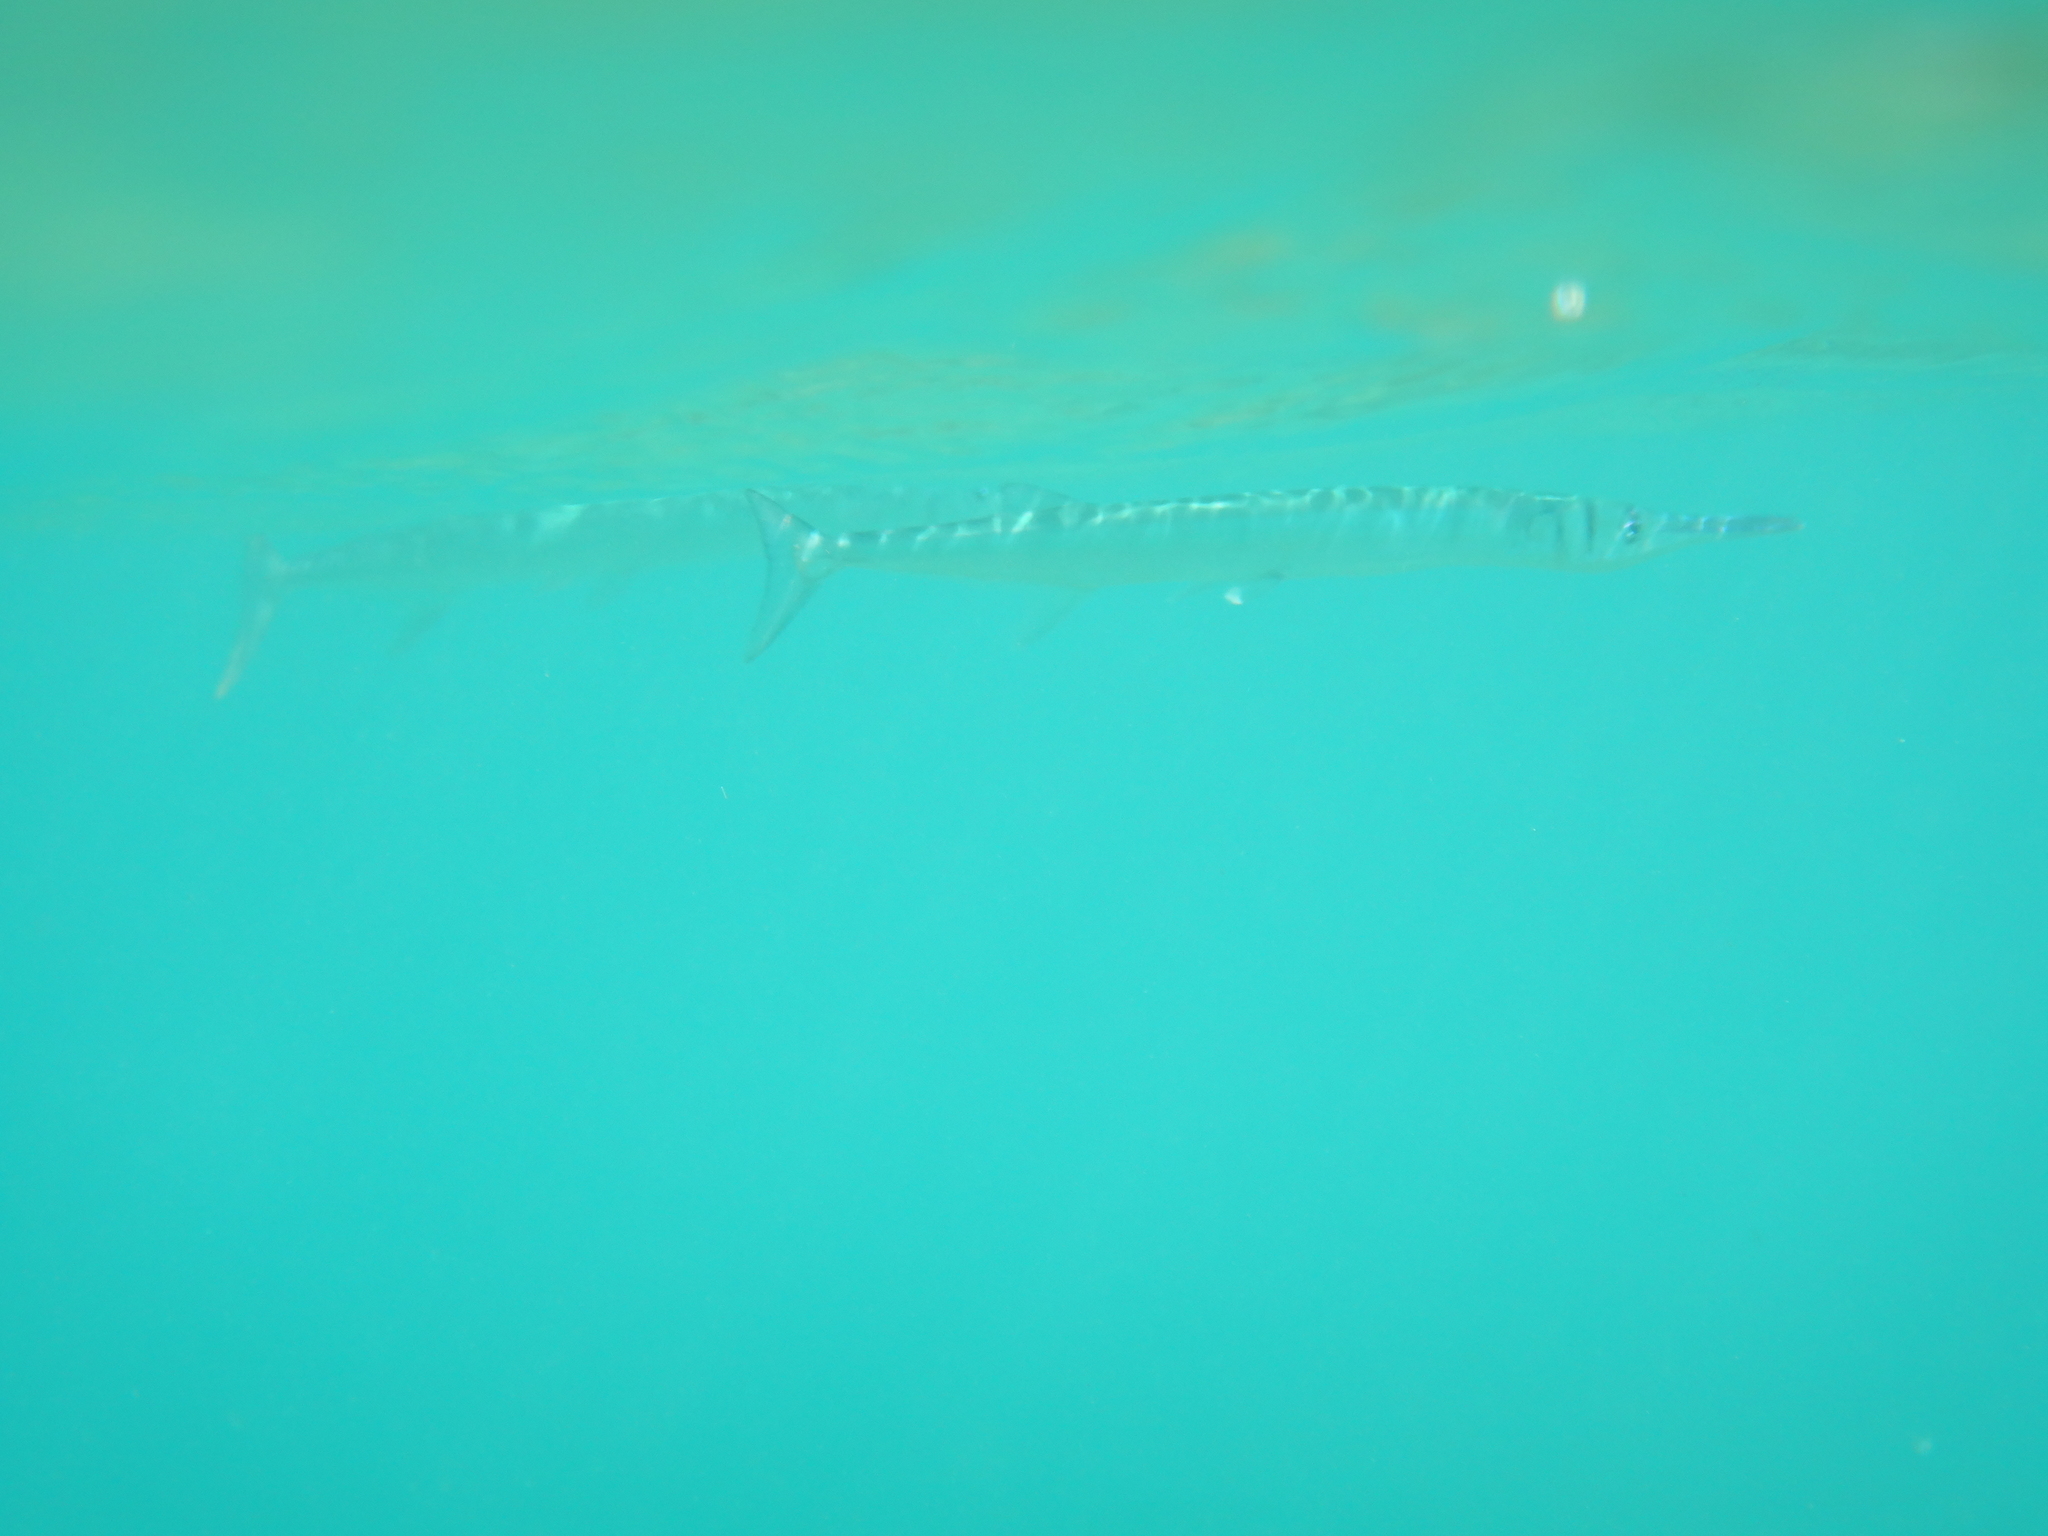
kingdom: Animalia
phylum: Chordata
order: Beloniformes
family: Belonidae
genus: Tylosurus
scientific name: Tylosurus crocodilus
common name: Houndfish
